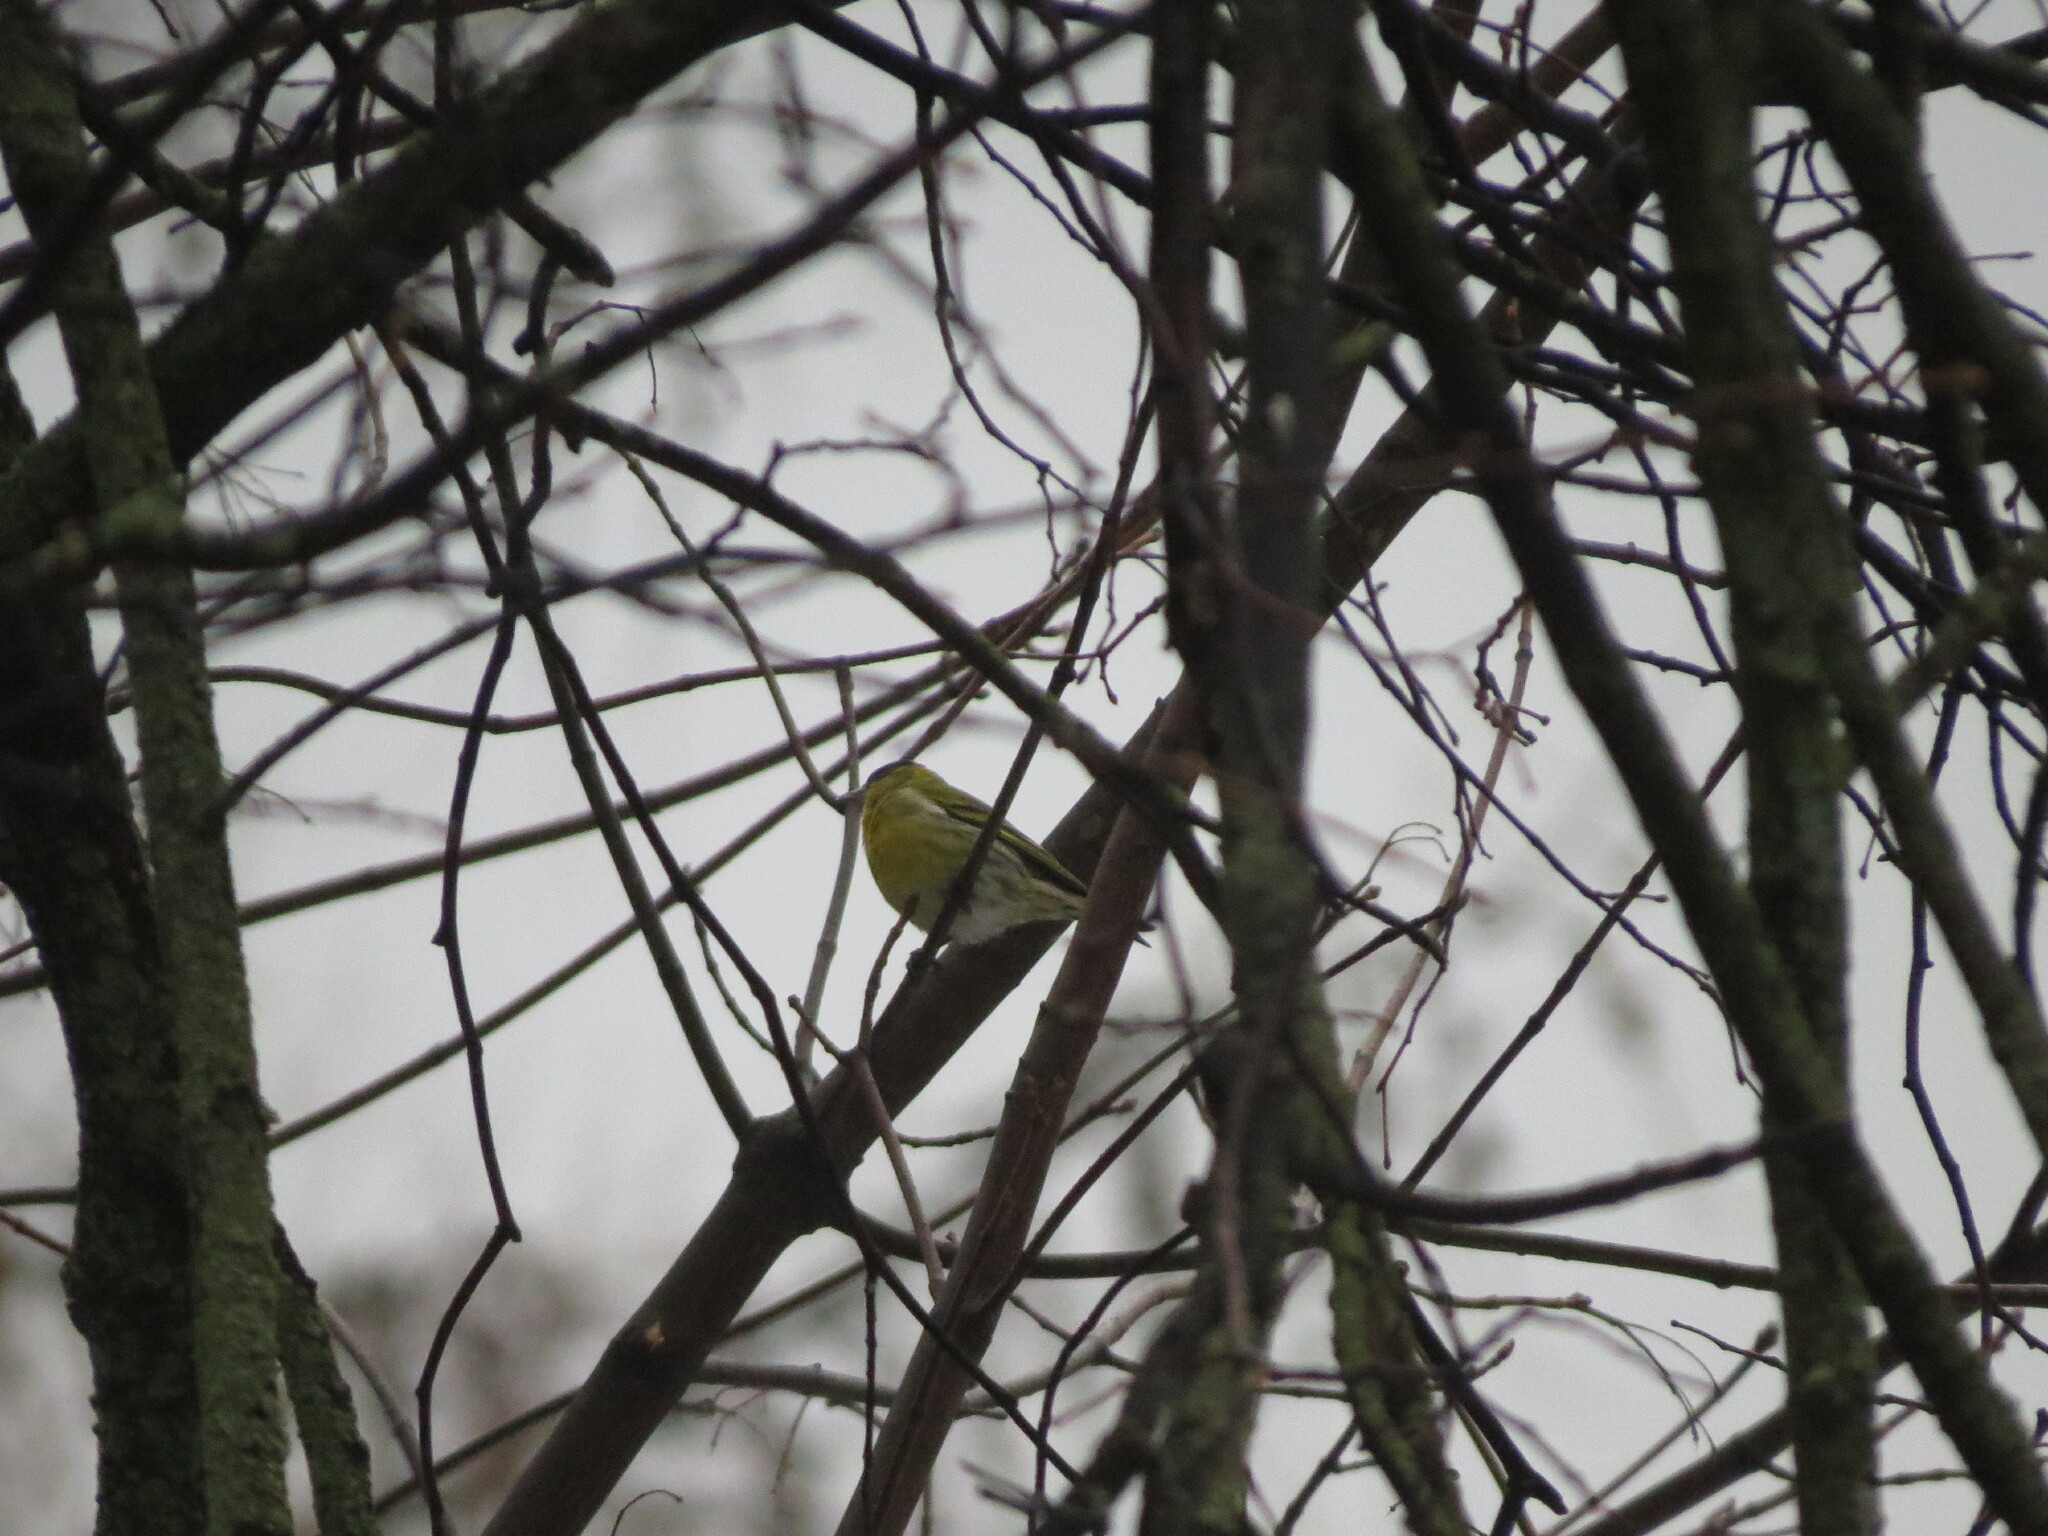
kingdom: Animalia
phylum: Chordata
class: Aves
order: Passeriformes
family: Fringillidae
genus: Spinus
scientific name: Spinus spinus
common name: Eurasian siskin
